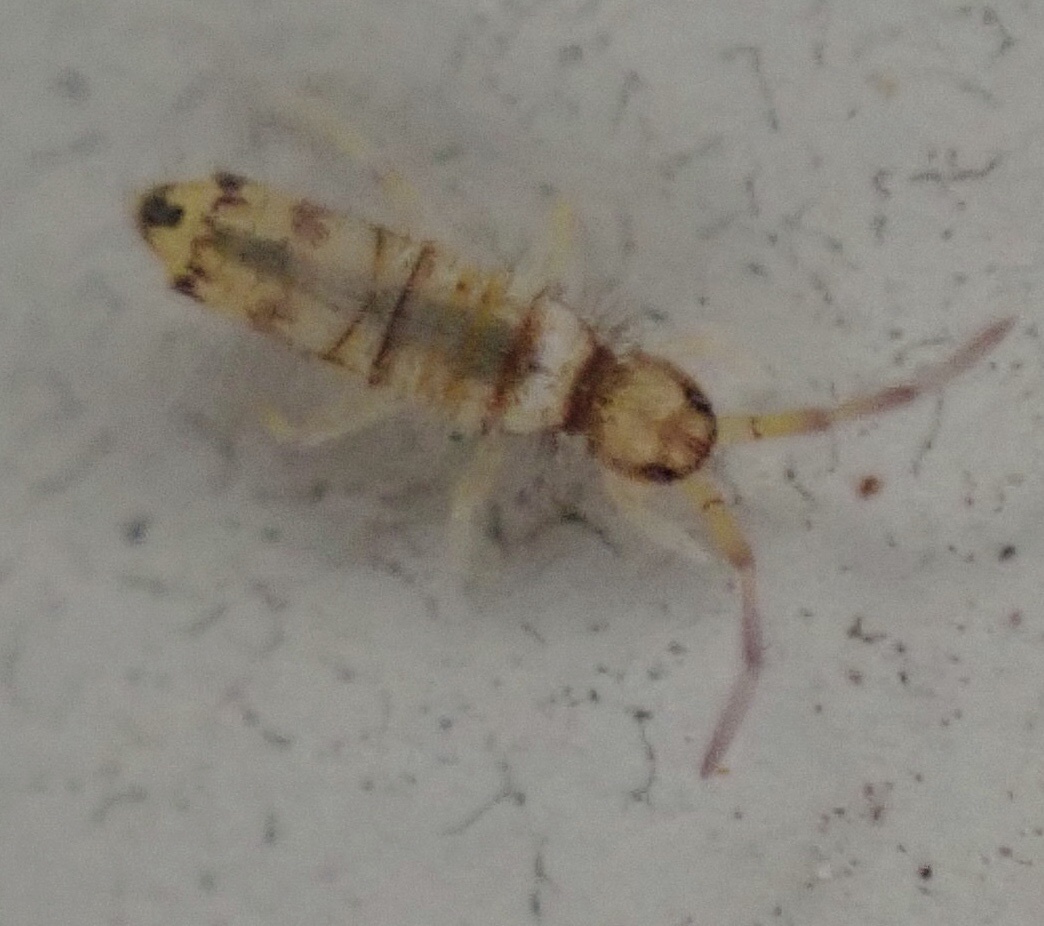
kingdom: Animalia
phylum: Arthropoda
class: Collembola
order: Entomobryomorpha
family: Entomobryidae
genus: Entomobrya
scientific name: Entomobrya atrocincta
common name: Springtail
